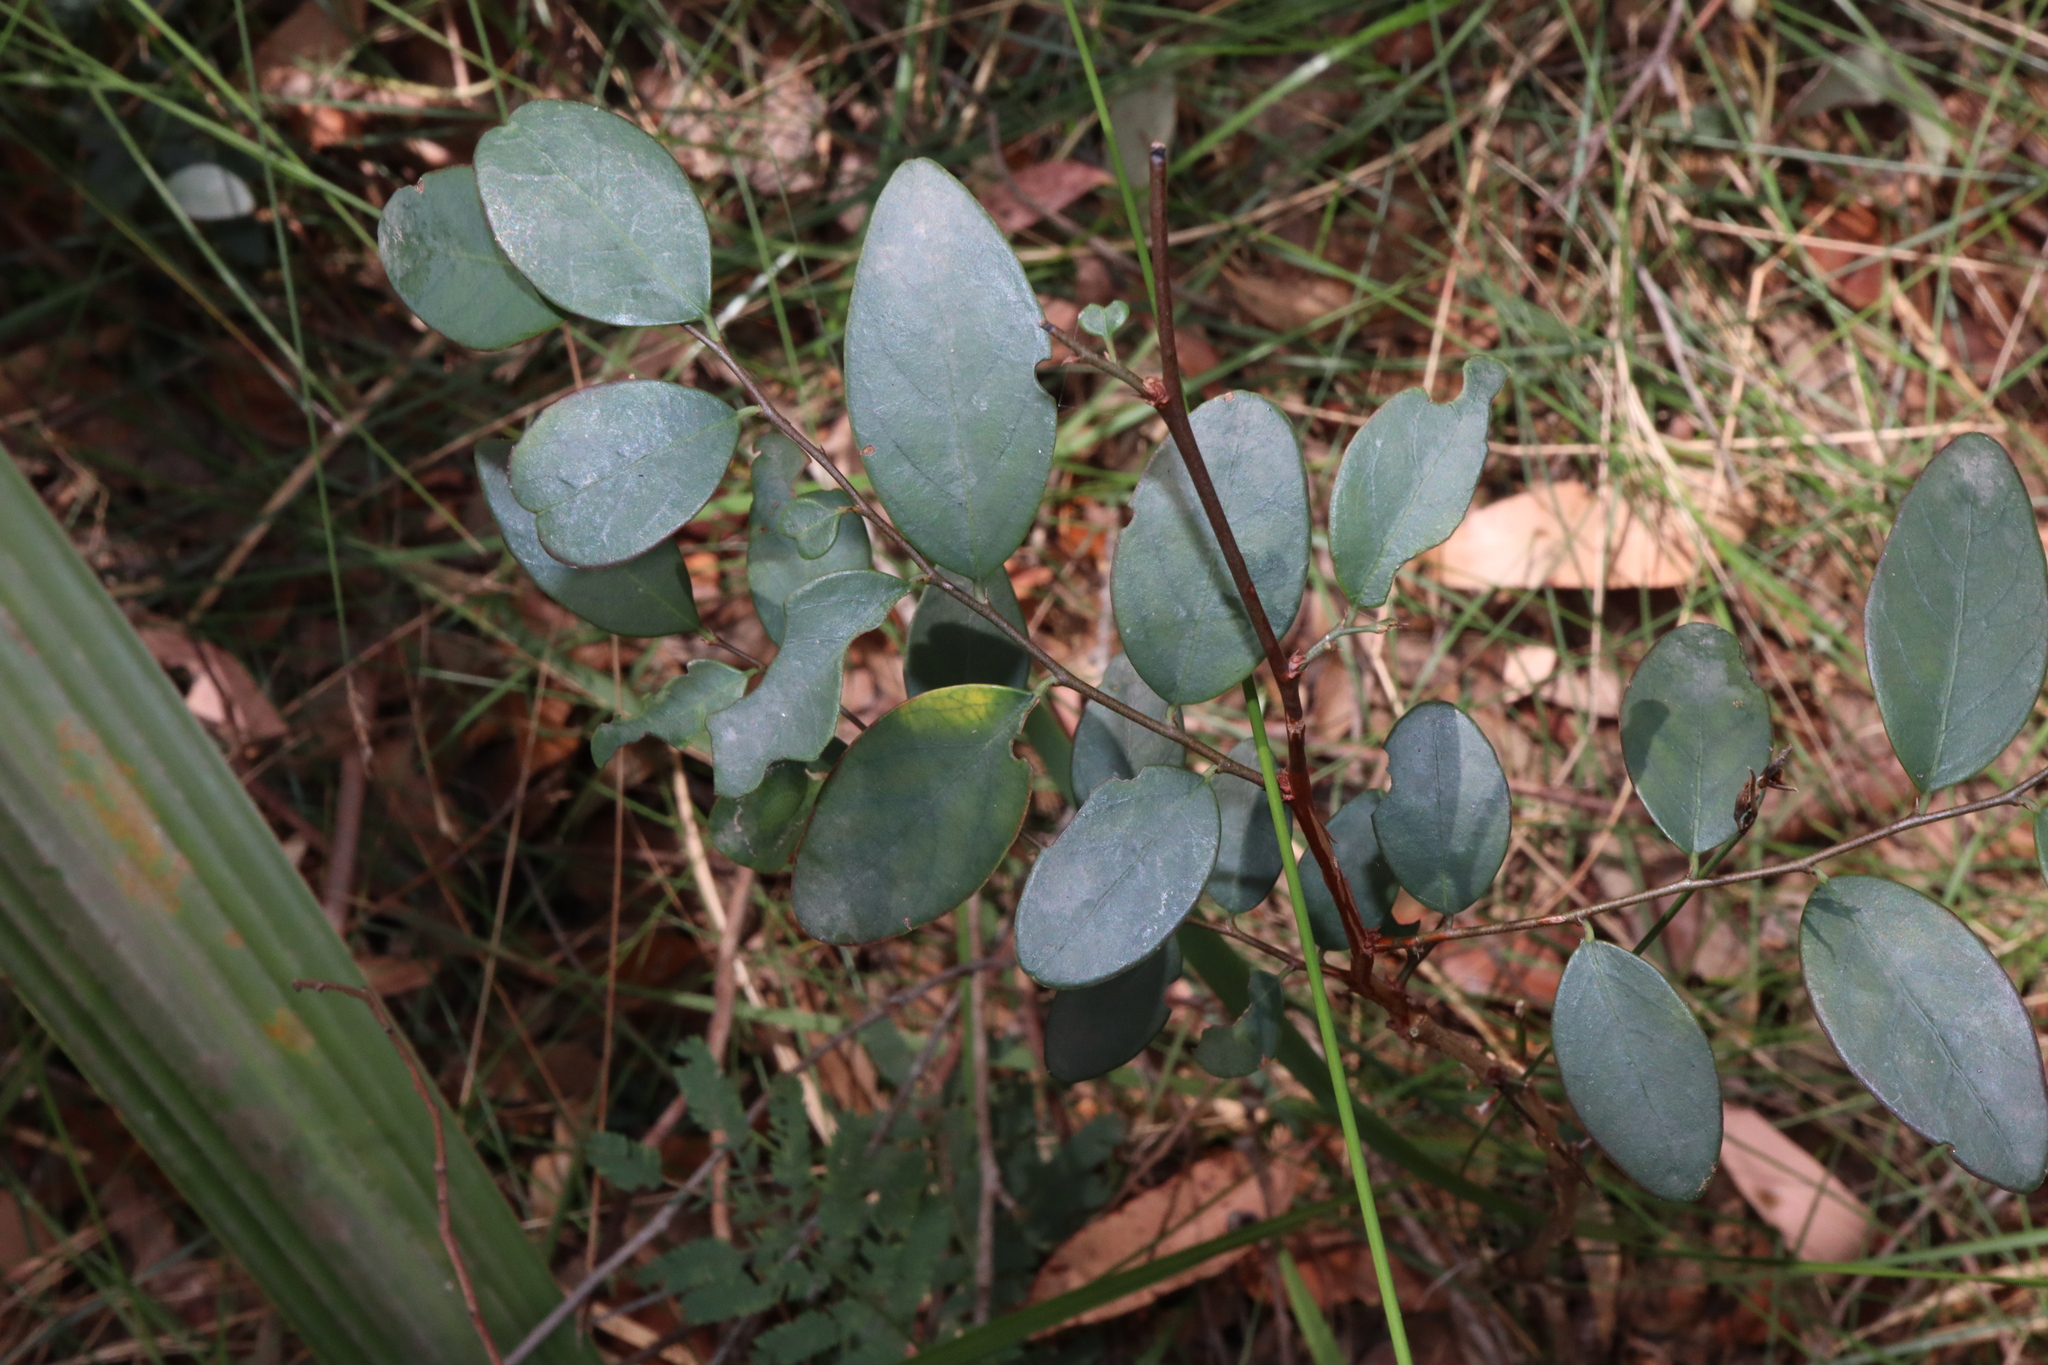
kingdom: Plantae
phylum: Tracheophyta
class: Magnoliopsida
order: Malpighiales
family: Phyllanthaceae
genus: Breynia
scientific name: Breynia oblongifolia
